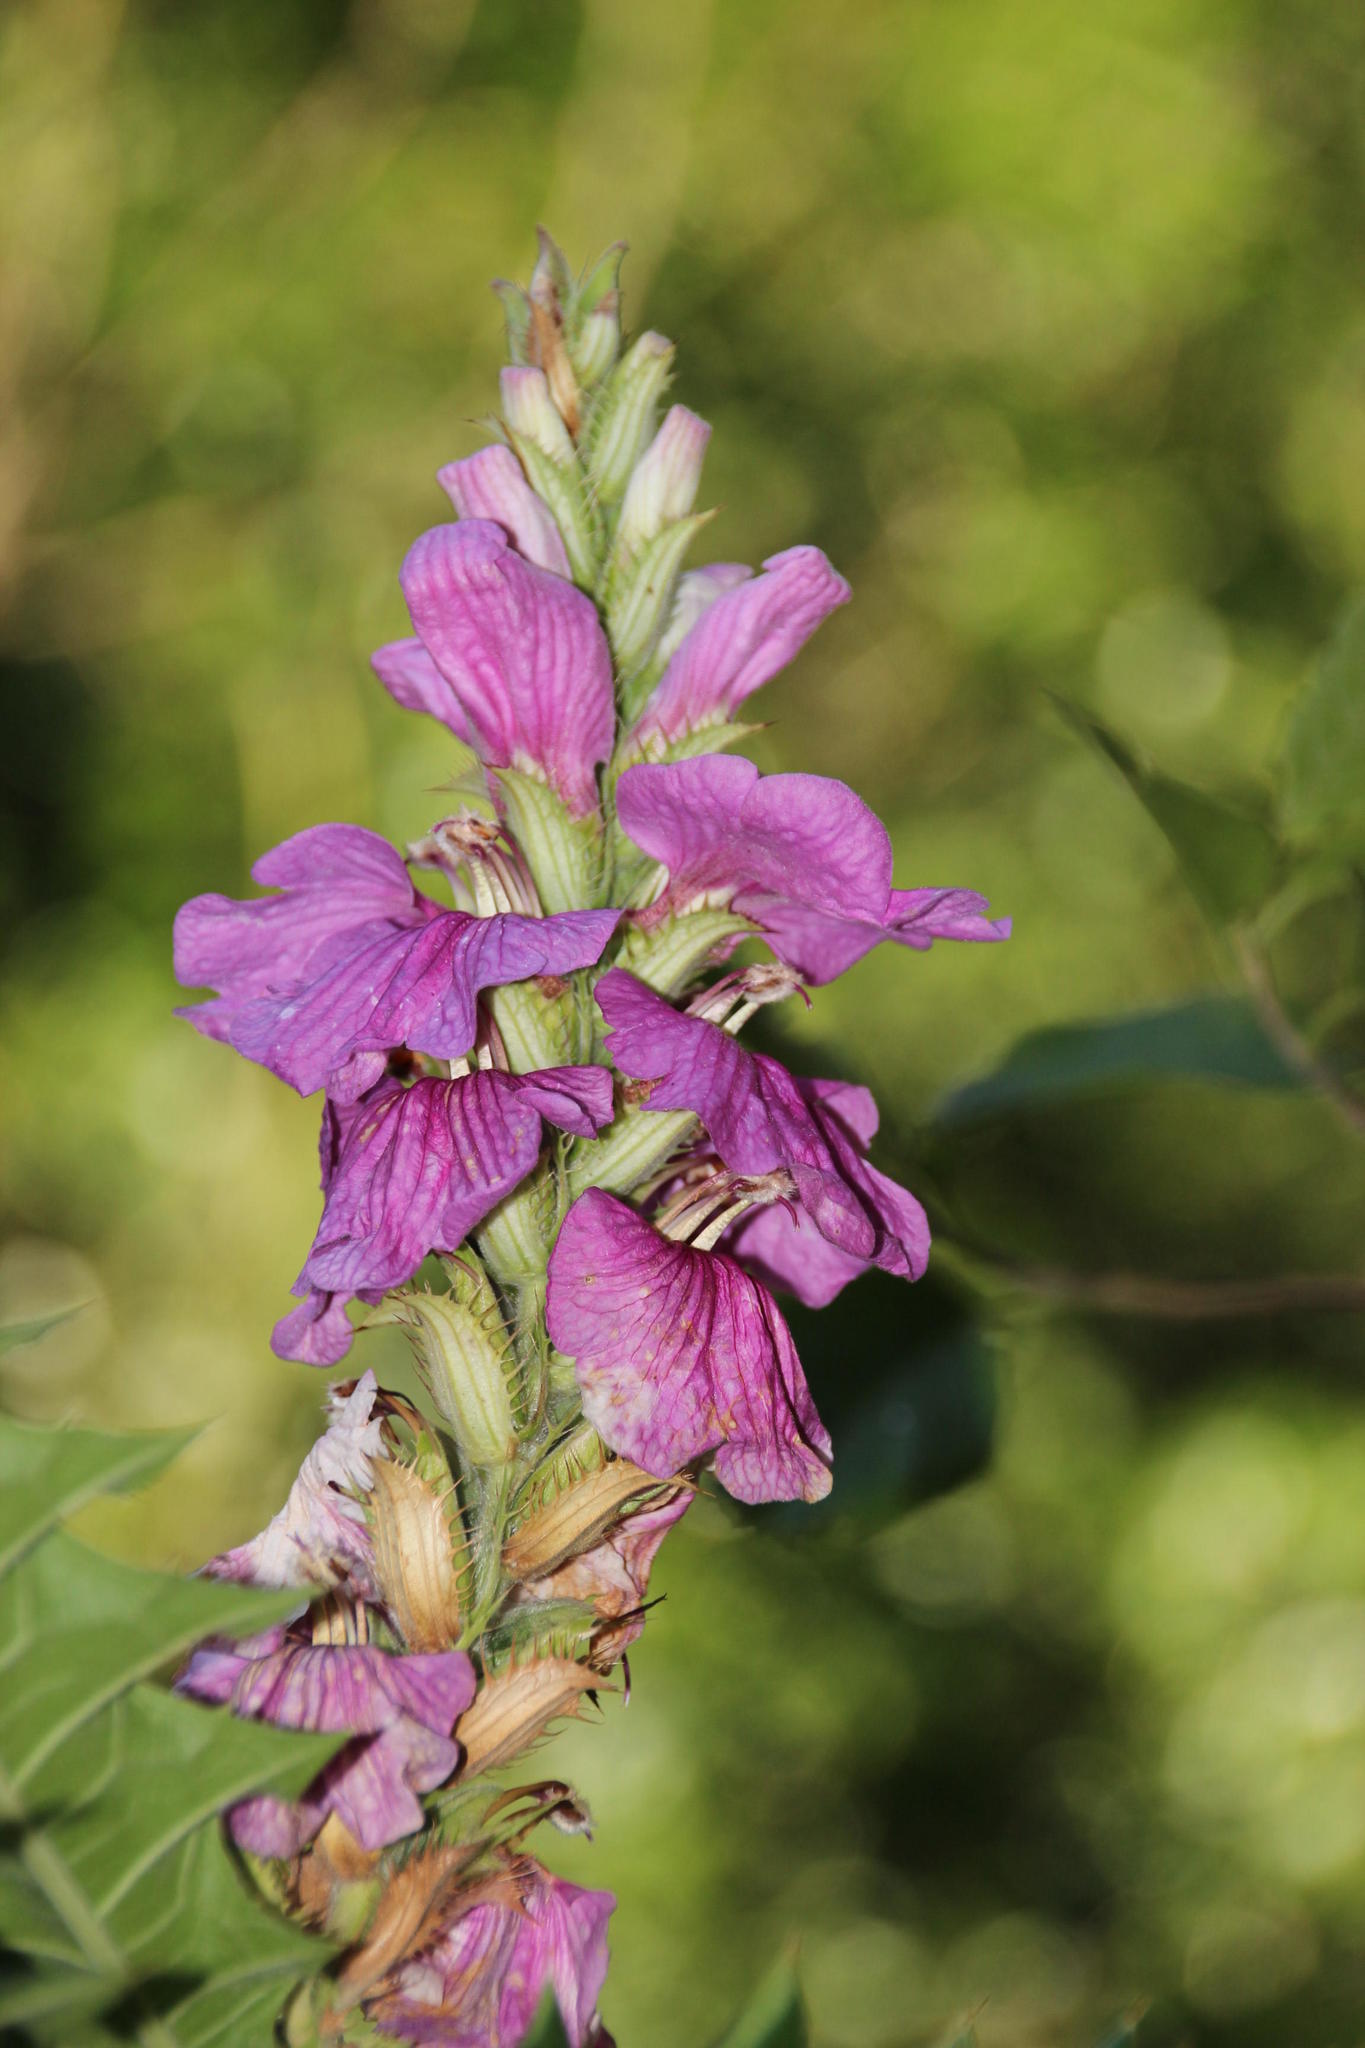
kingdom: Plantae
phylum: Tracheophyta
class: Magnoliopsida
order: Lamiales
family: Acanthaceae
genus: Acanthus
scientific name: Acanthus polystachyus
